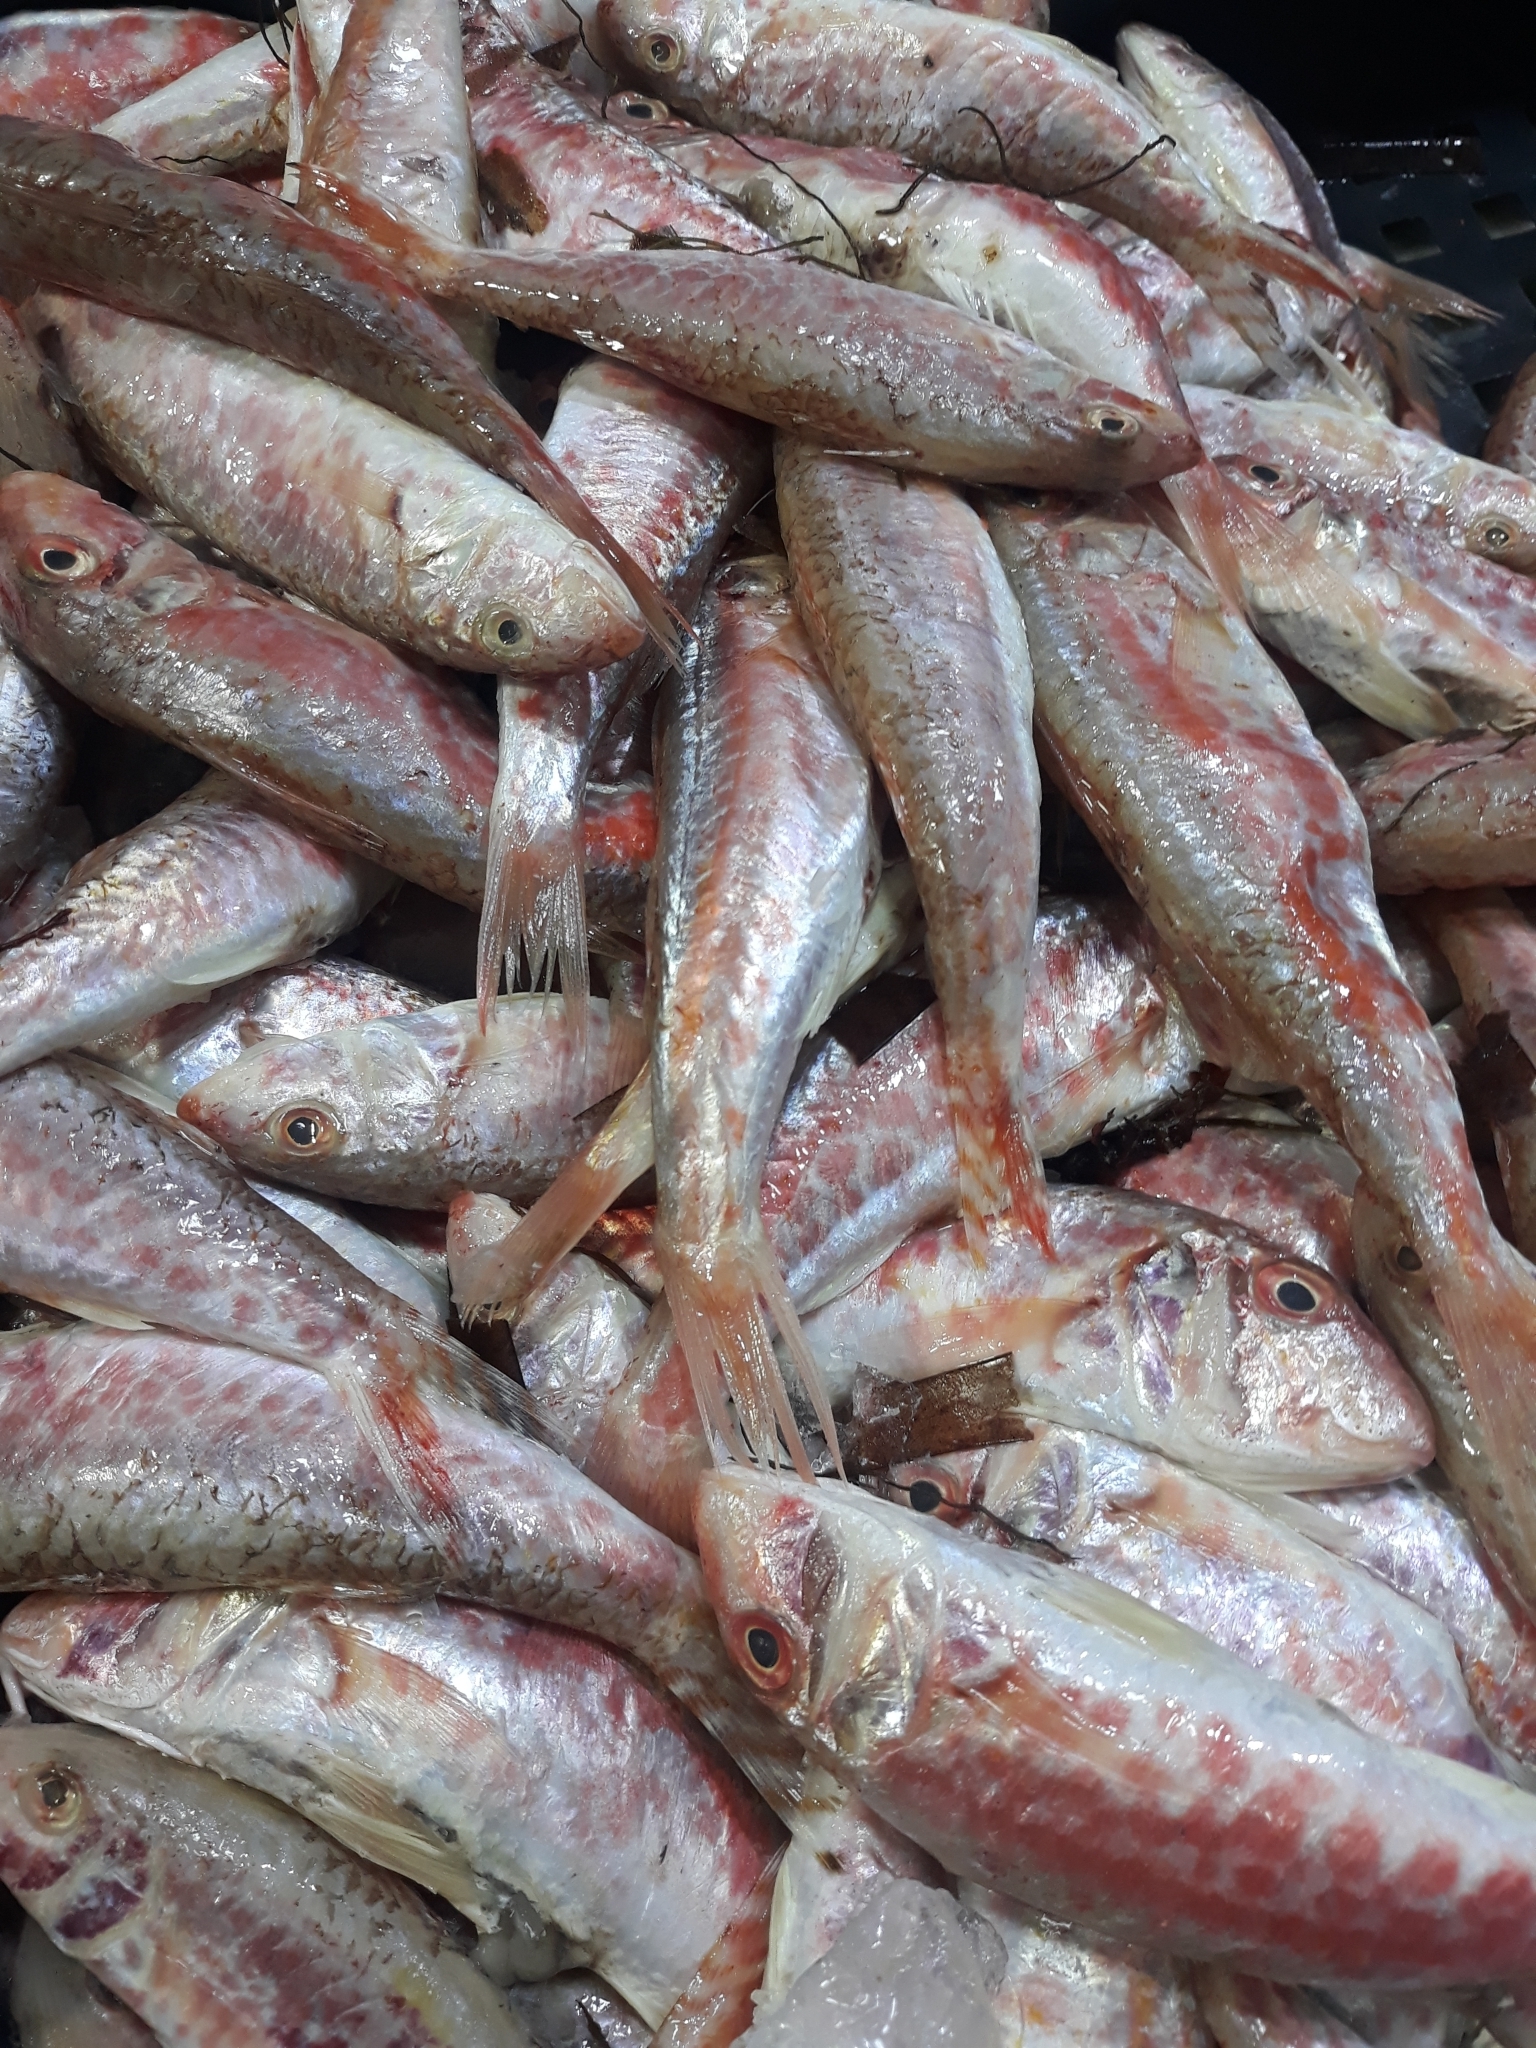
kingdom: Animalia
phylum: Chordata
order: Perciformes
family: Mullidae
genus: Mullus
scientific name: Mullus barbatus
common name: Blunt-snouted mullet
